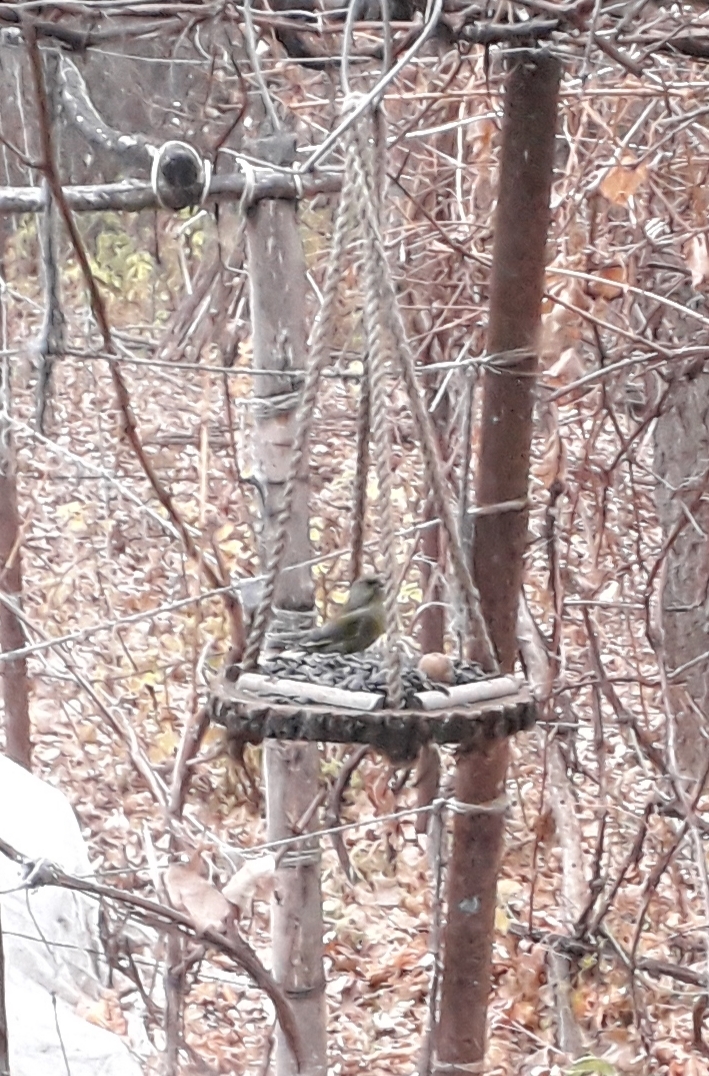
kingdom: Plantae
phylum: Tracheophyta
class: Liliopsida
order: Poales
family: Poaceae
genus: Chloris
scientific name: Chloris chloris
